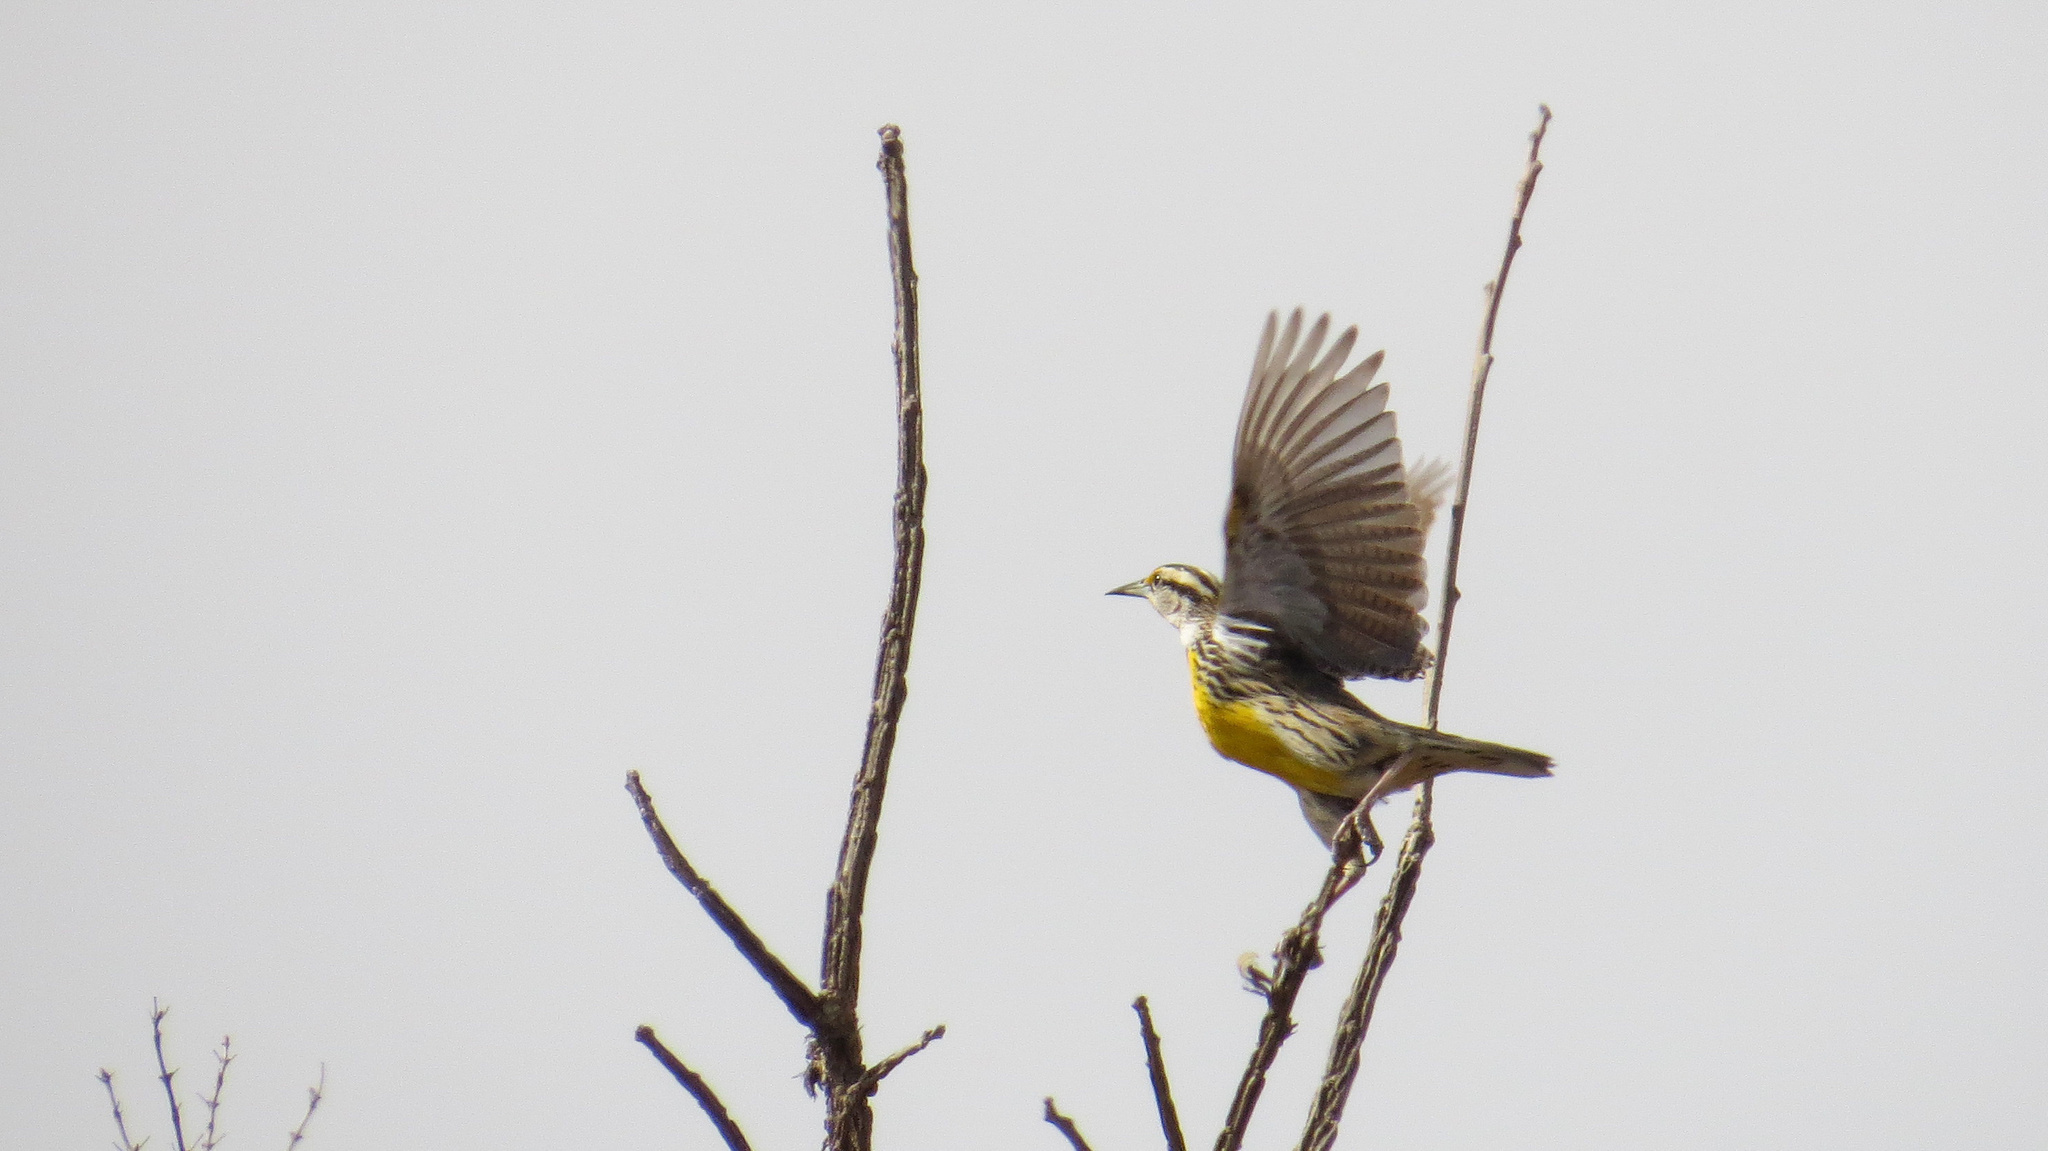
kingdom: Animalia
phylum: Chordata
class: Aves
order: Passeriformes
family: Icteridae
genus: Sturnella
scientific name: Sturnella magna
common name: Eastern meadowlark
